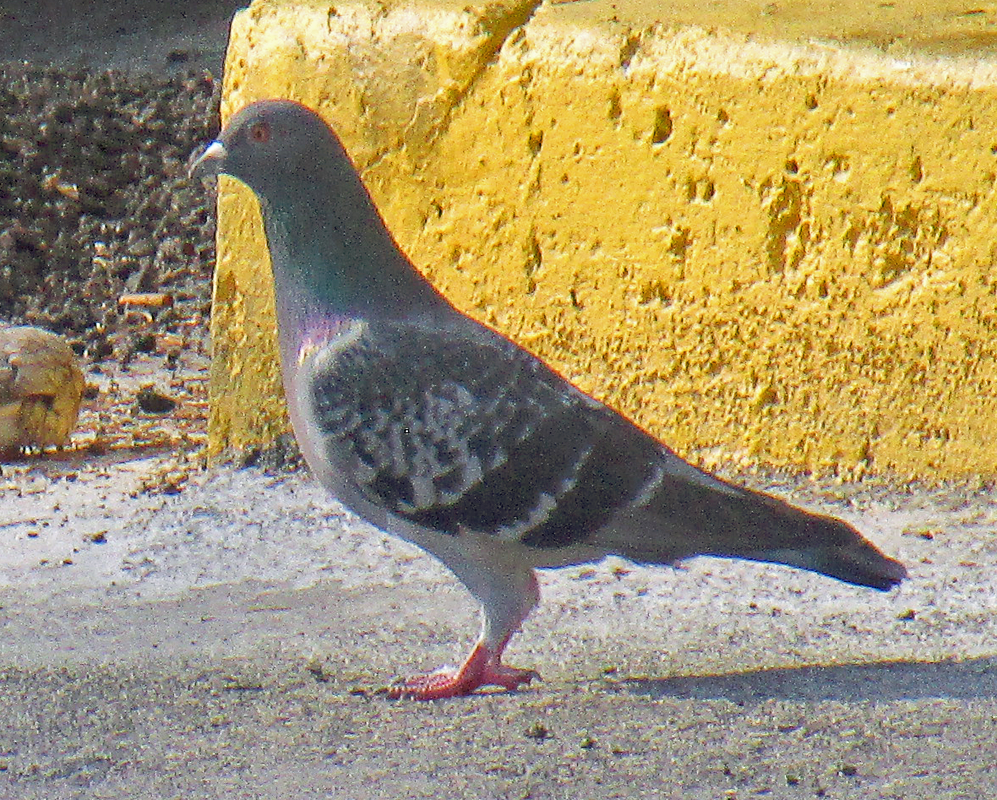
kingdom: Animalia
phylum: Chordata
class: Aves
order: Columbiformes
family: Columbidae
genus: Columba
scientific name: Columba livia
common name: Rock pigeon
